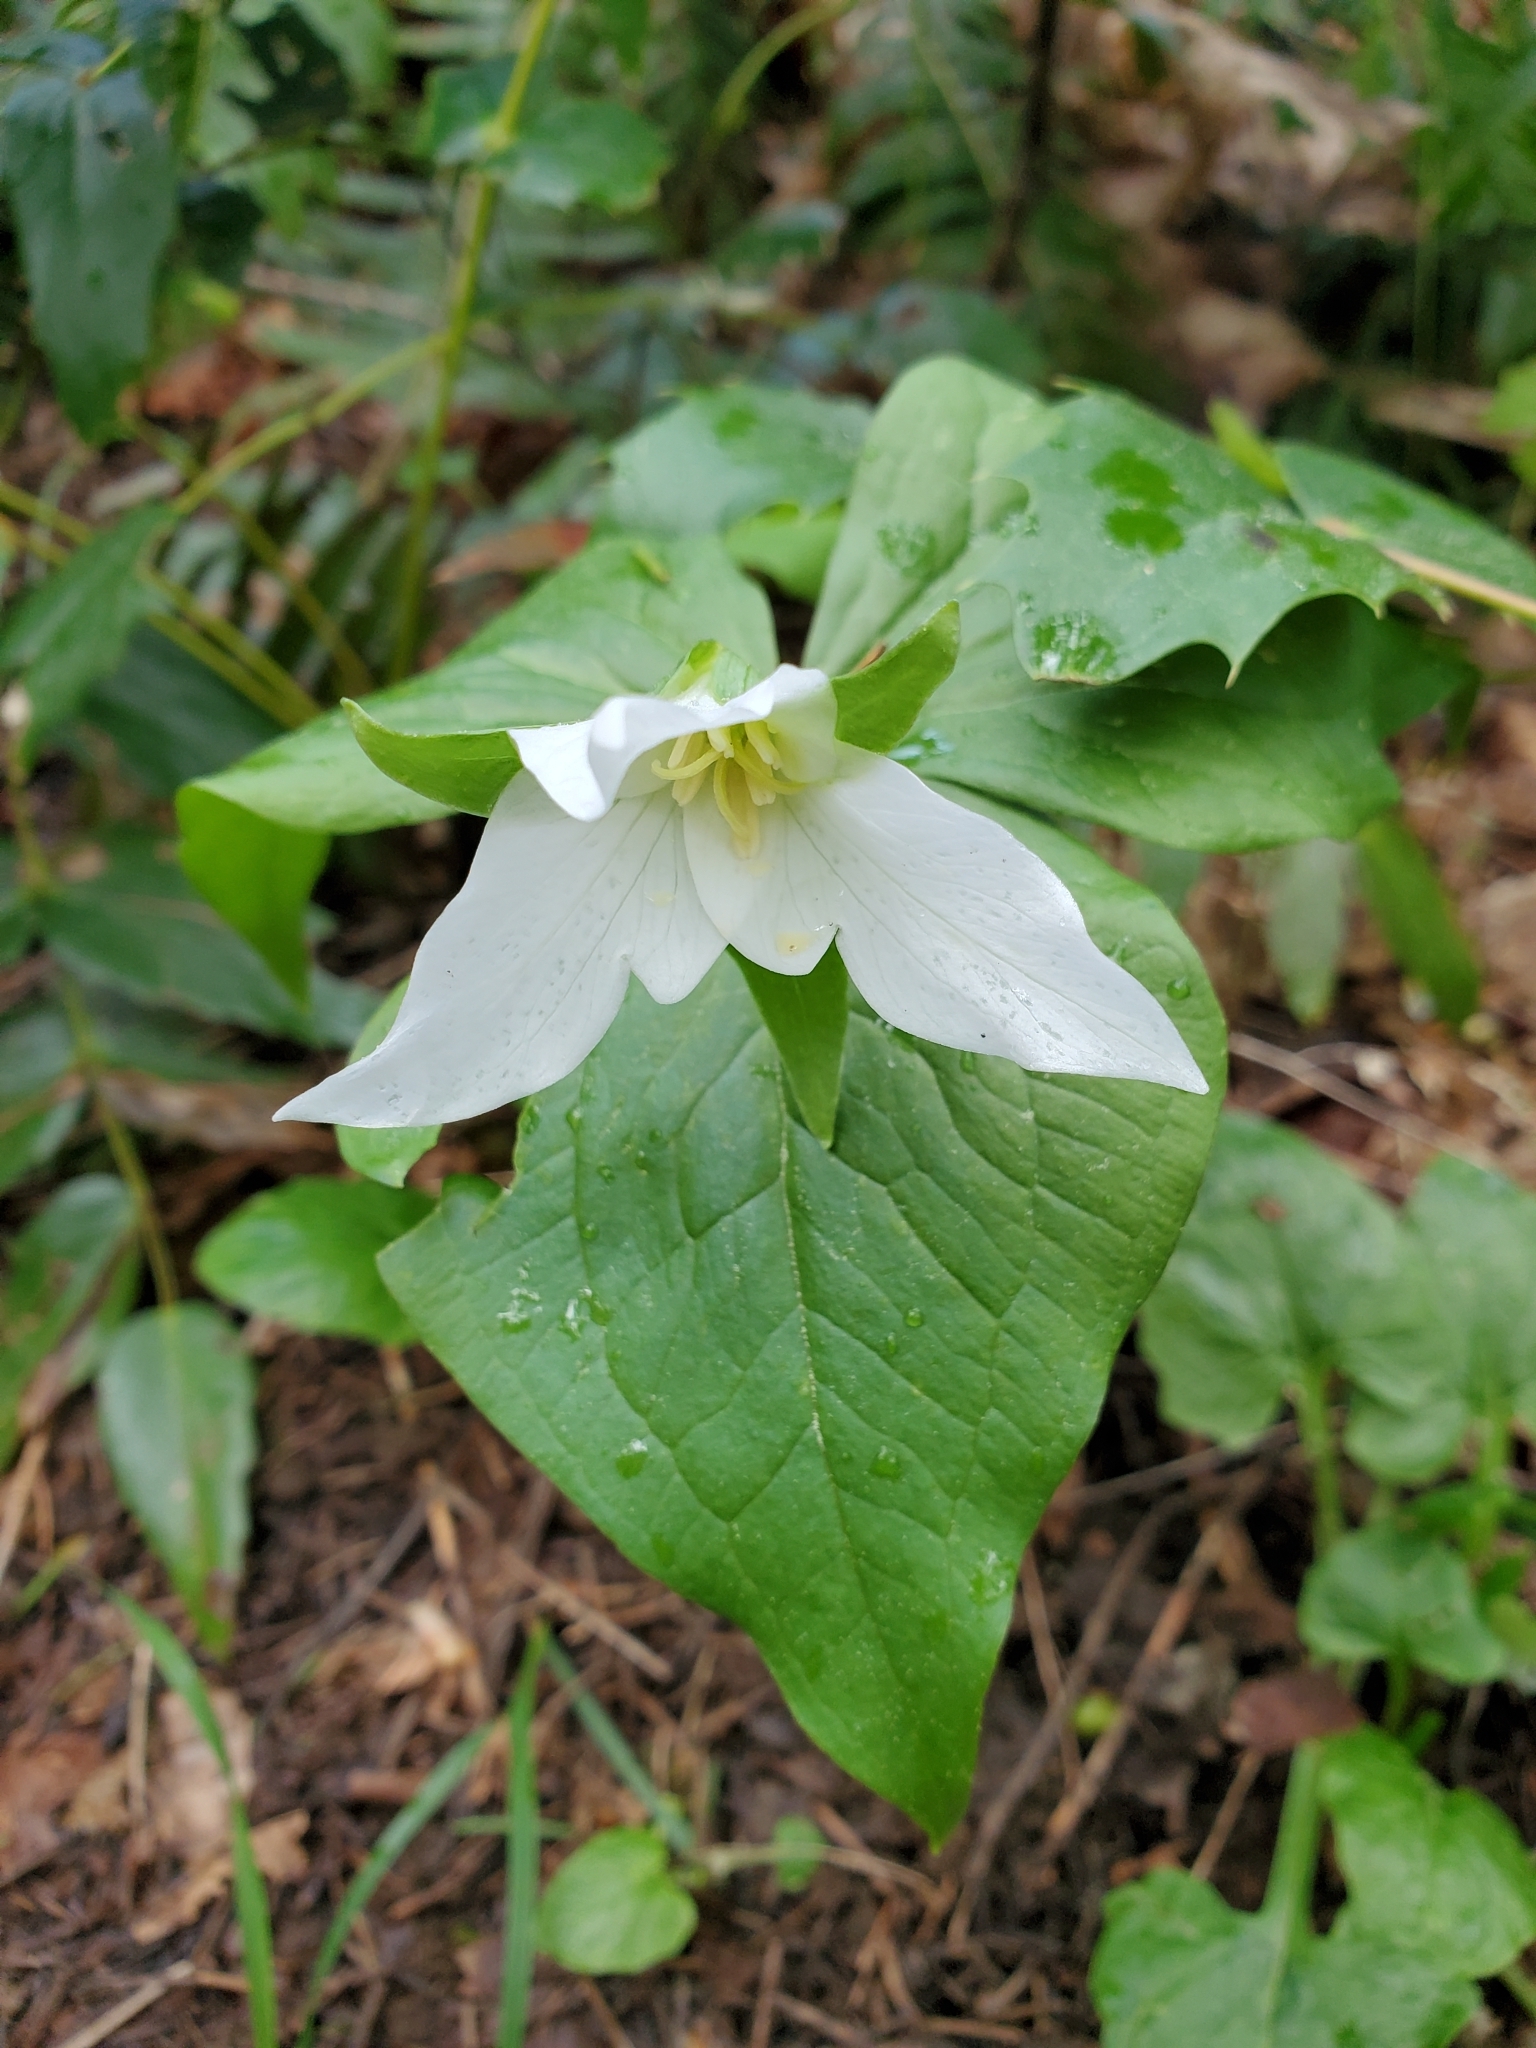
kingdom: Plantae
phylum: Tracheophyta
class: Liliopsida
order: Liliales
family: Melanthiaceae
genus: Trillium
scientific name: Trillium ovatum
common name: Pacific trillium
